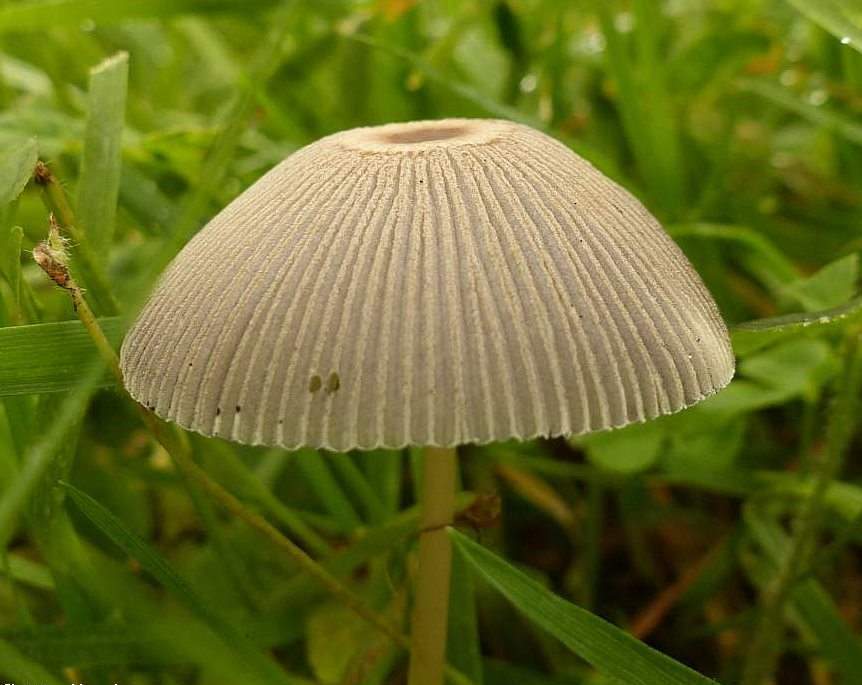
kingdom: Fungi
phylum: Basidiomycota
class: Agaricomycetes
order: Agaricales
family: Psathyrellaceae
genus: Parasola
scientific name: Parasola plicatilis
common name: Pleated inkcap
